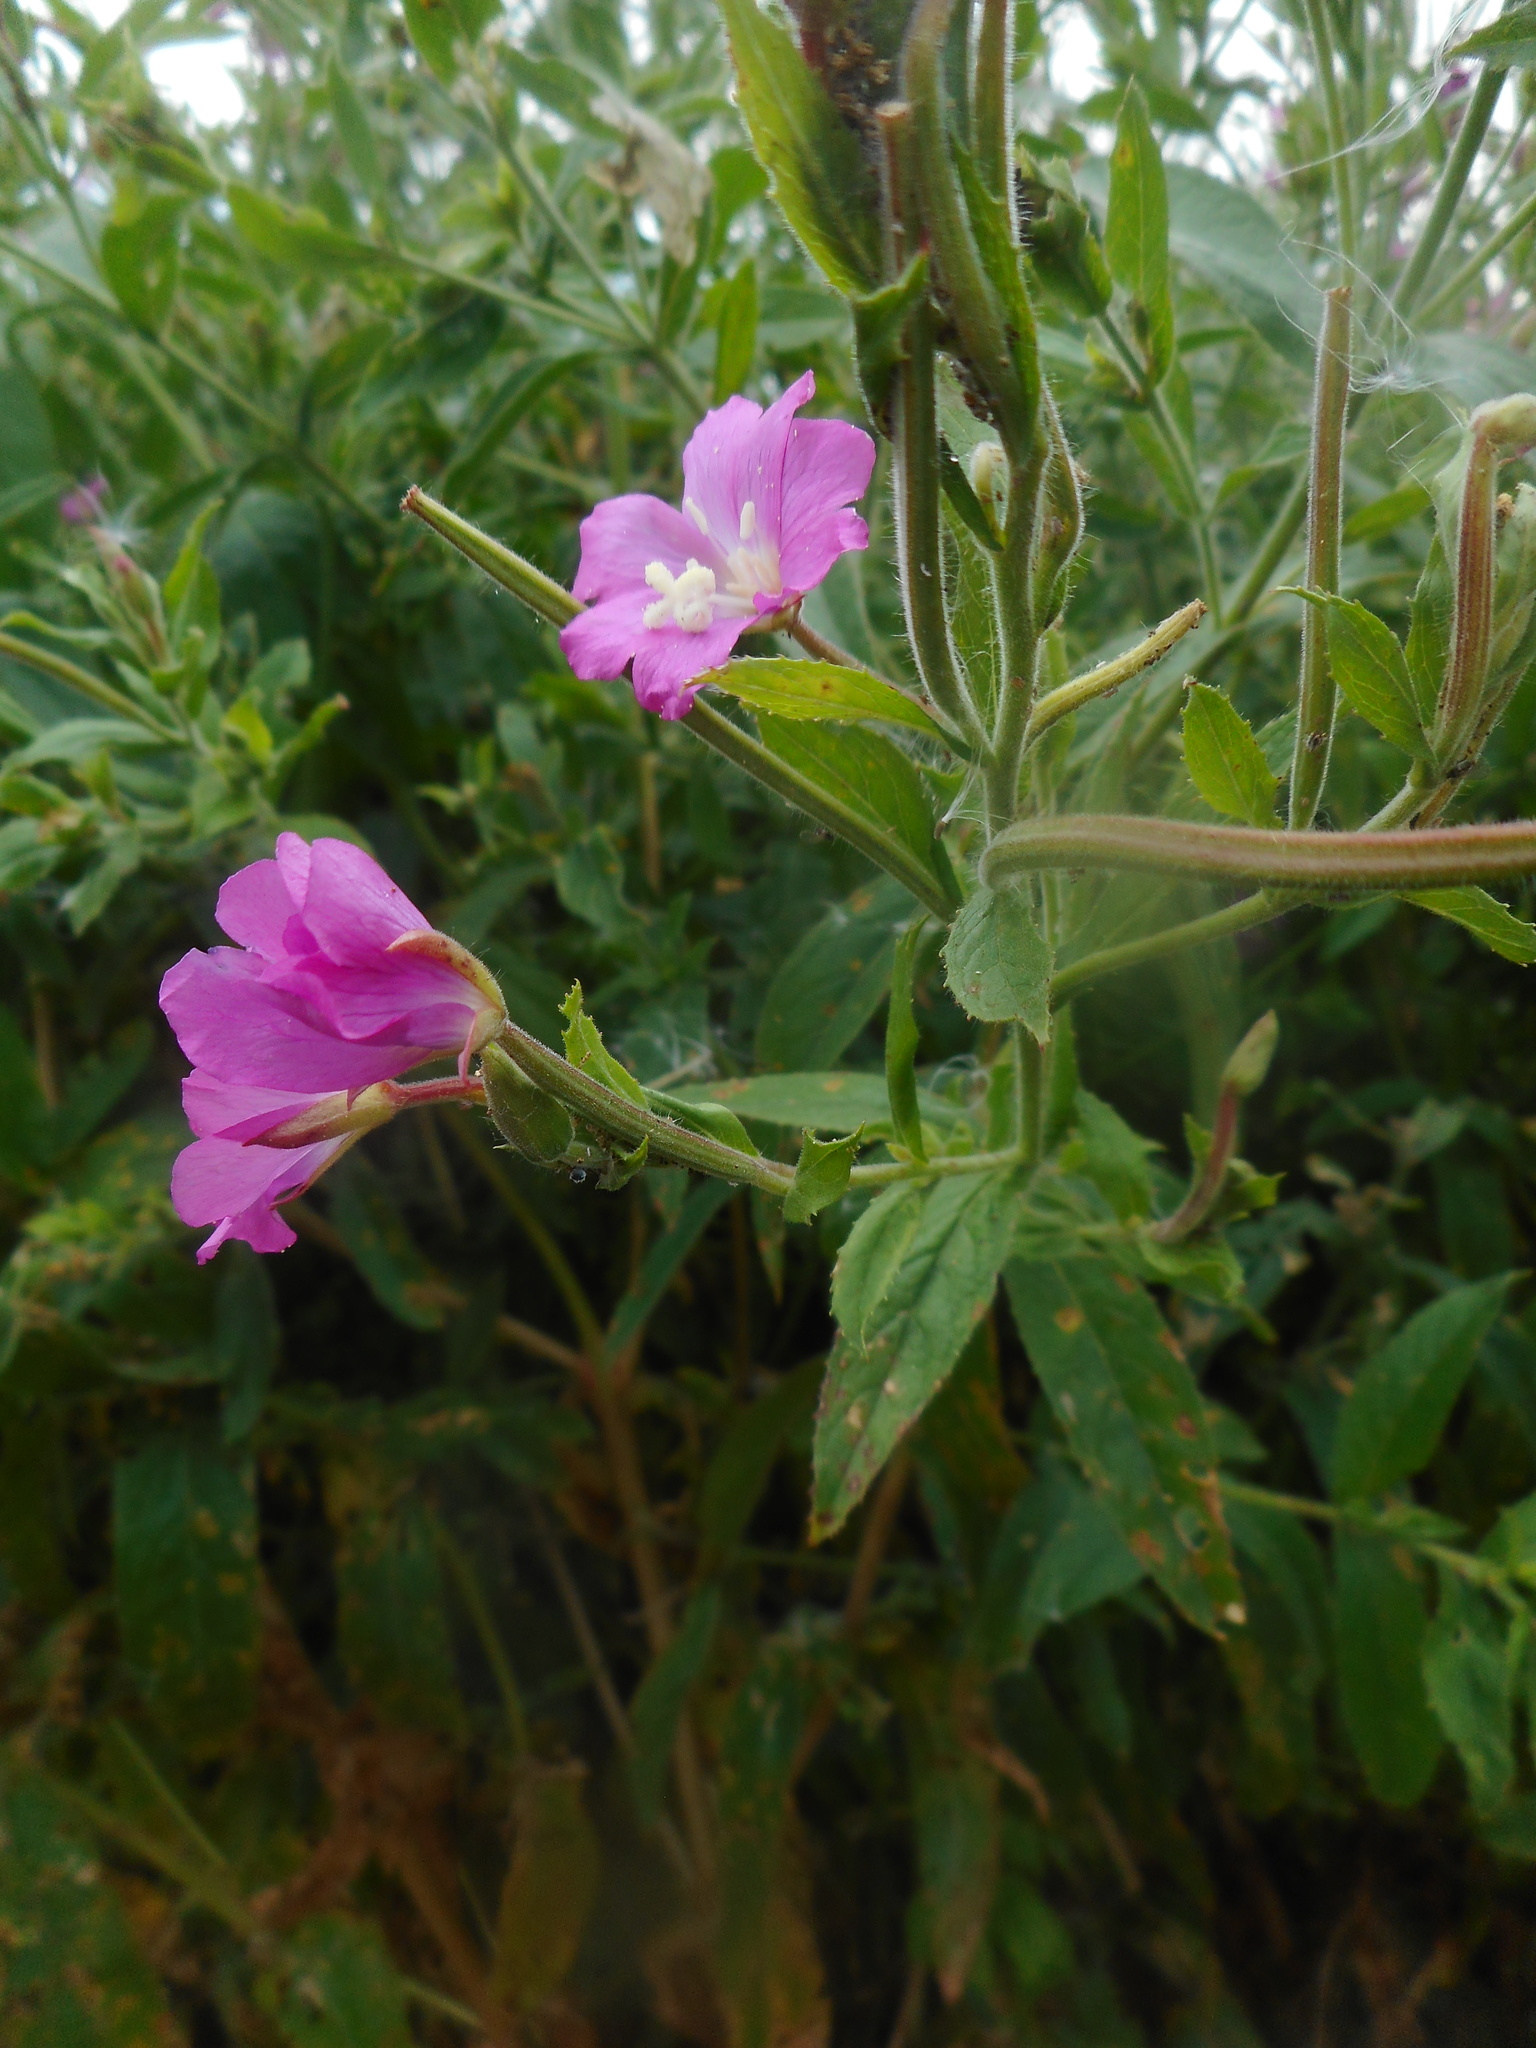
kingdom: Plantae
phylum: Tracheophyta
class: Magnoliopsida
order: Myrtales
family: Onagraceae
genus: Epilobium
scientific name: Epilobium hirsutum
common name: Great willowherb
